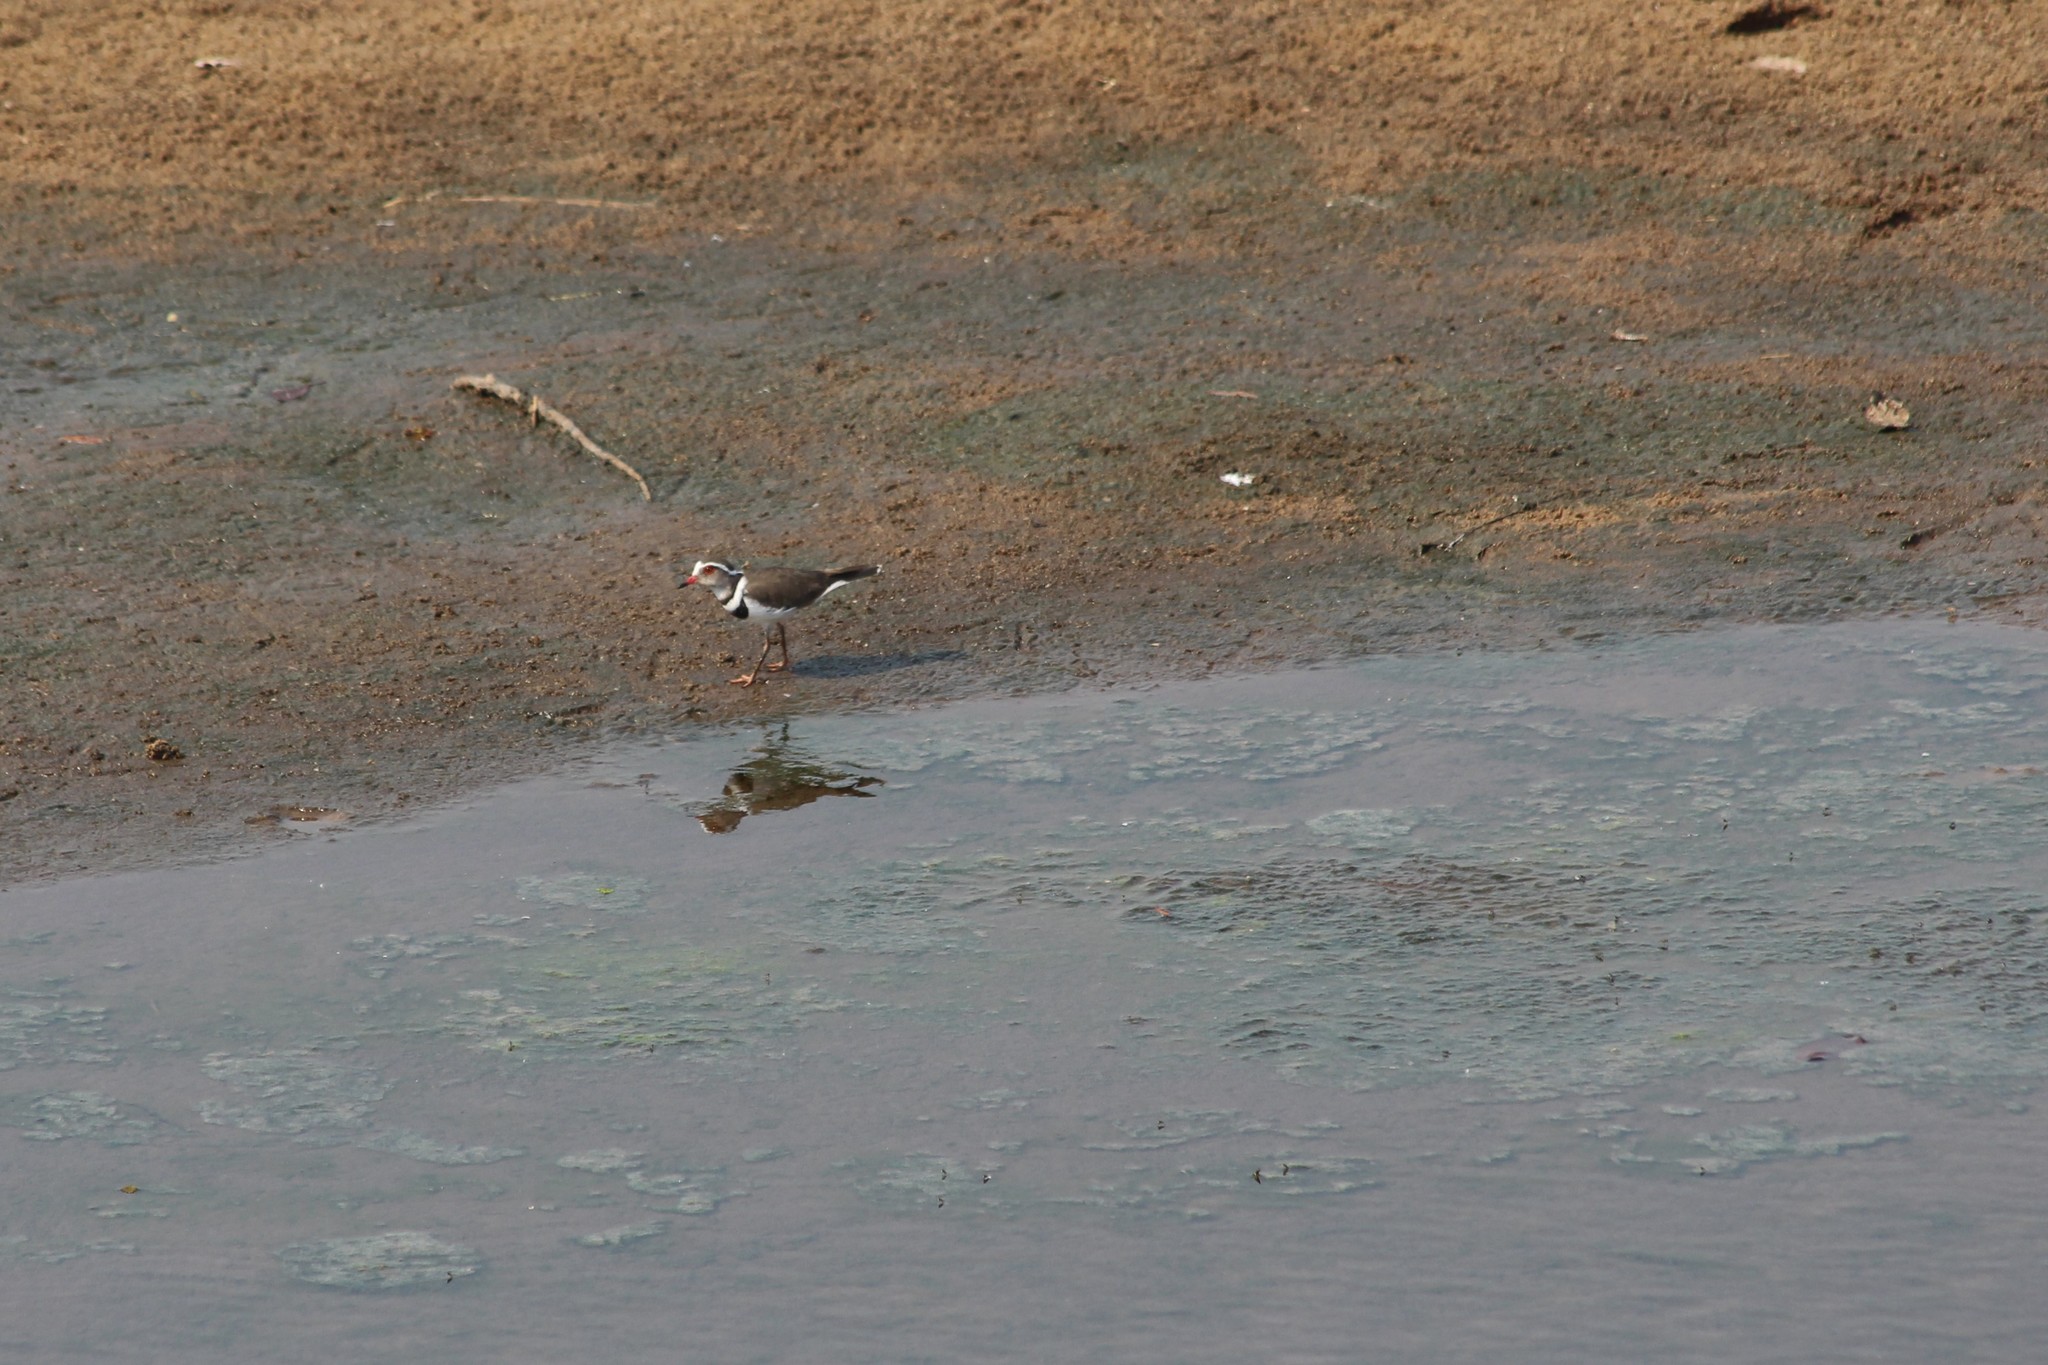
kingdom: Animalia
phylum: Chordata
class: Aves
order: Charadriiformes
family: Charadriidae
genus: Charadrius
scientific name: Charadrius tricollaris
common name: Three-banded plover
